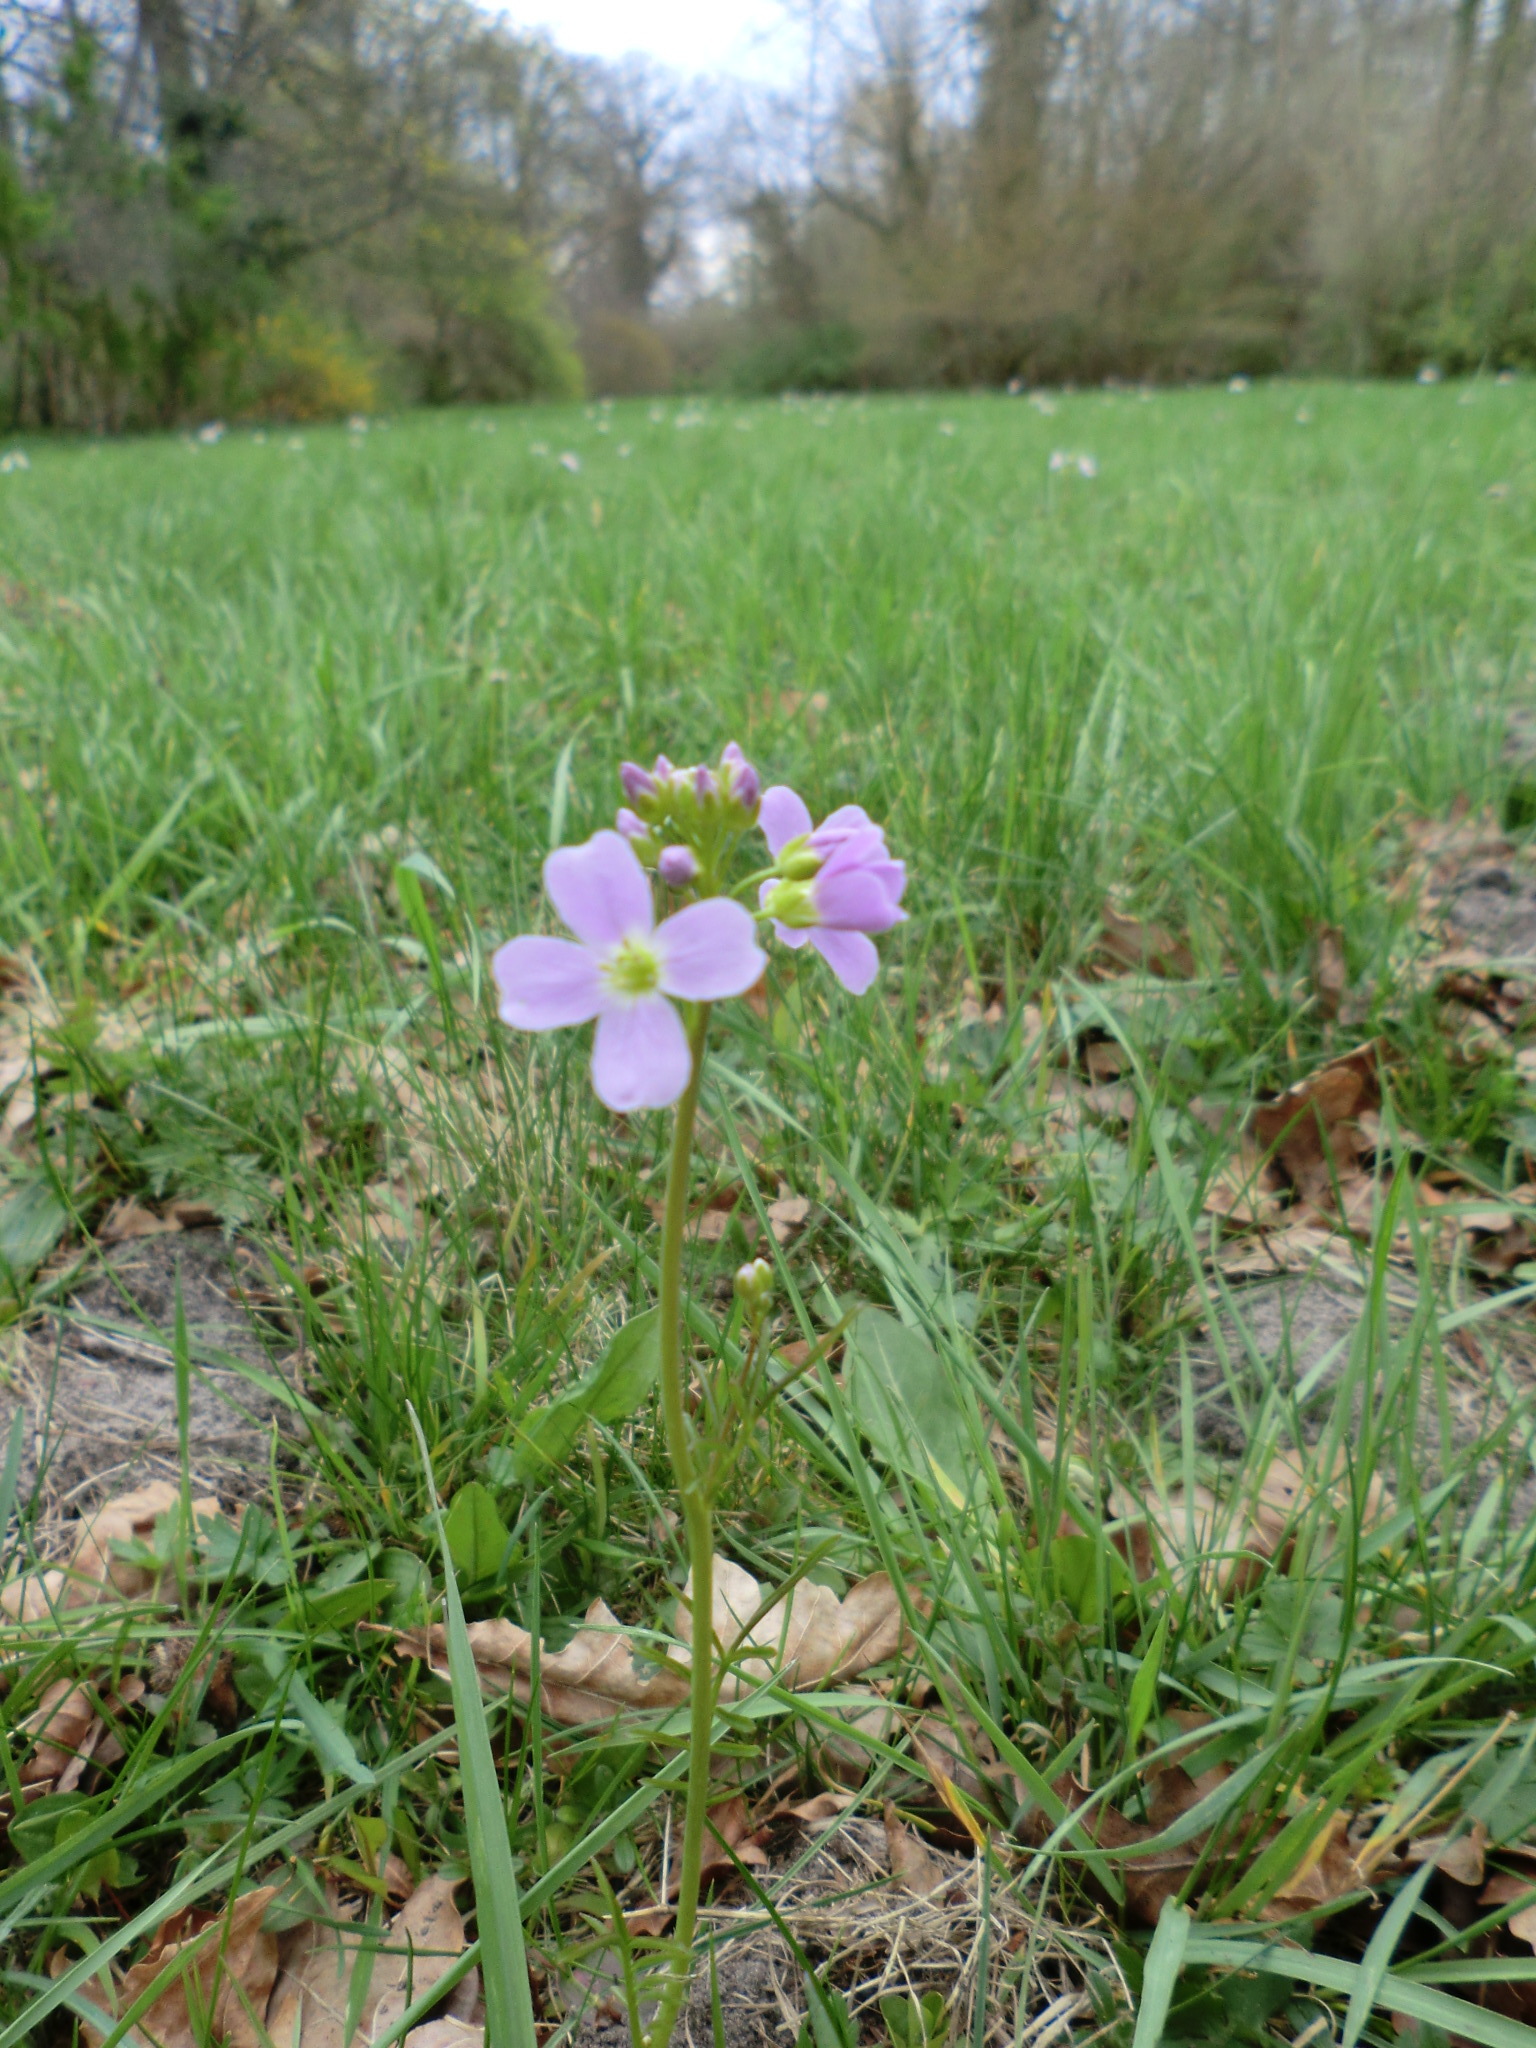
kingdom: Plantae
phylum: Tracheophyta
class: Magnoliopsida
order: Brassicales
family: Brassicaceae
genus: Cardamine
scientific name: Cardamine pratensis
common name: Cuckoo flower
